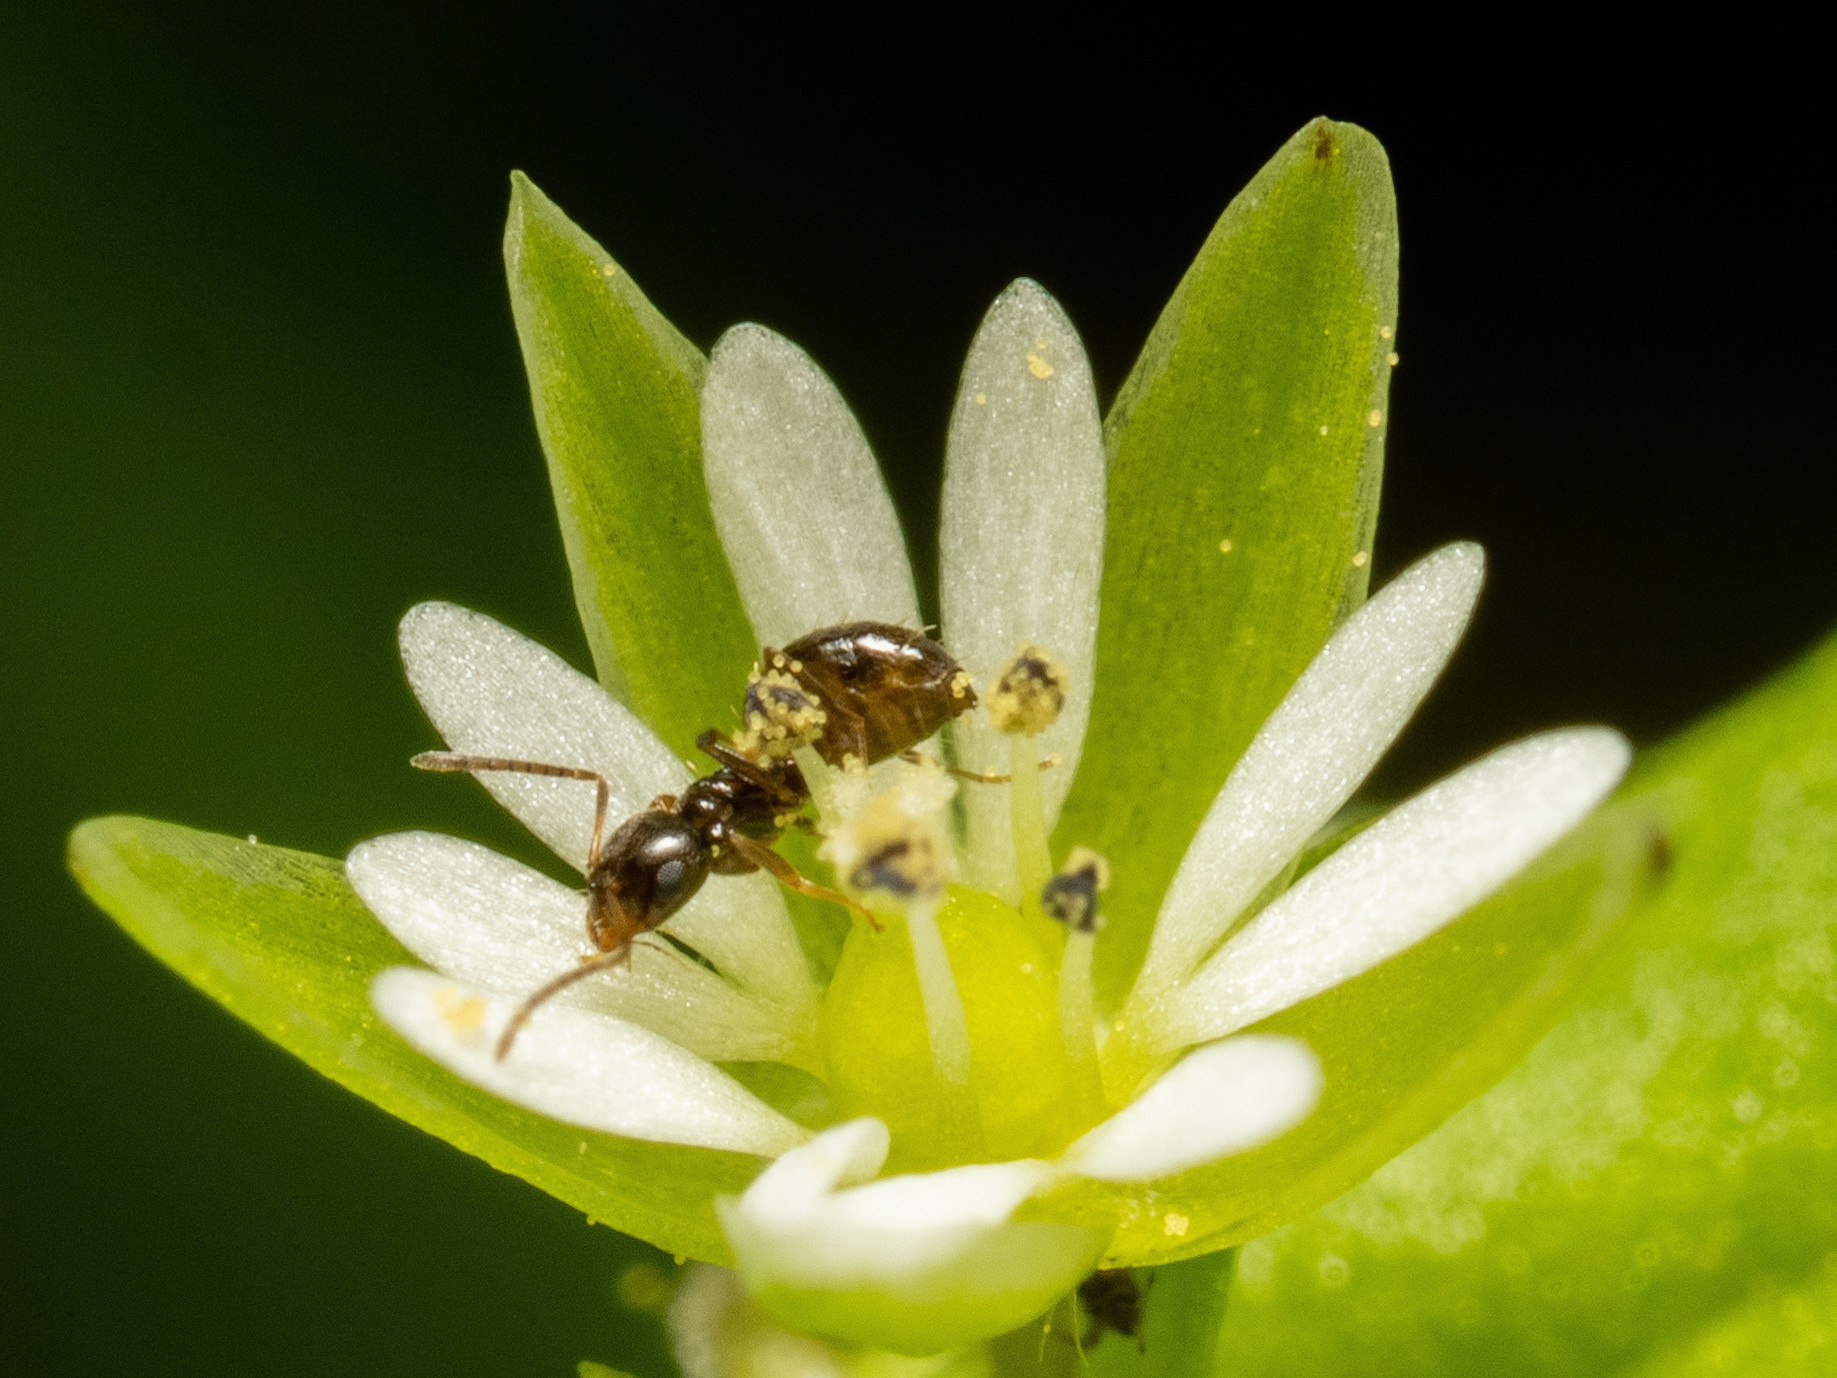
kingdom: Animalia
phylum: Arthropoda
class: Insecta
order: Hymenoptera
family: Formicidae
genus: Brachymyrmex
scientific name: Brachymyrmex patagonicus
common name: Dark rover ant
